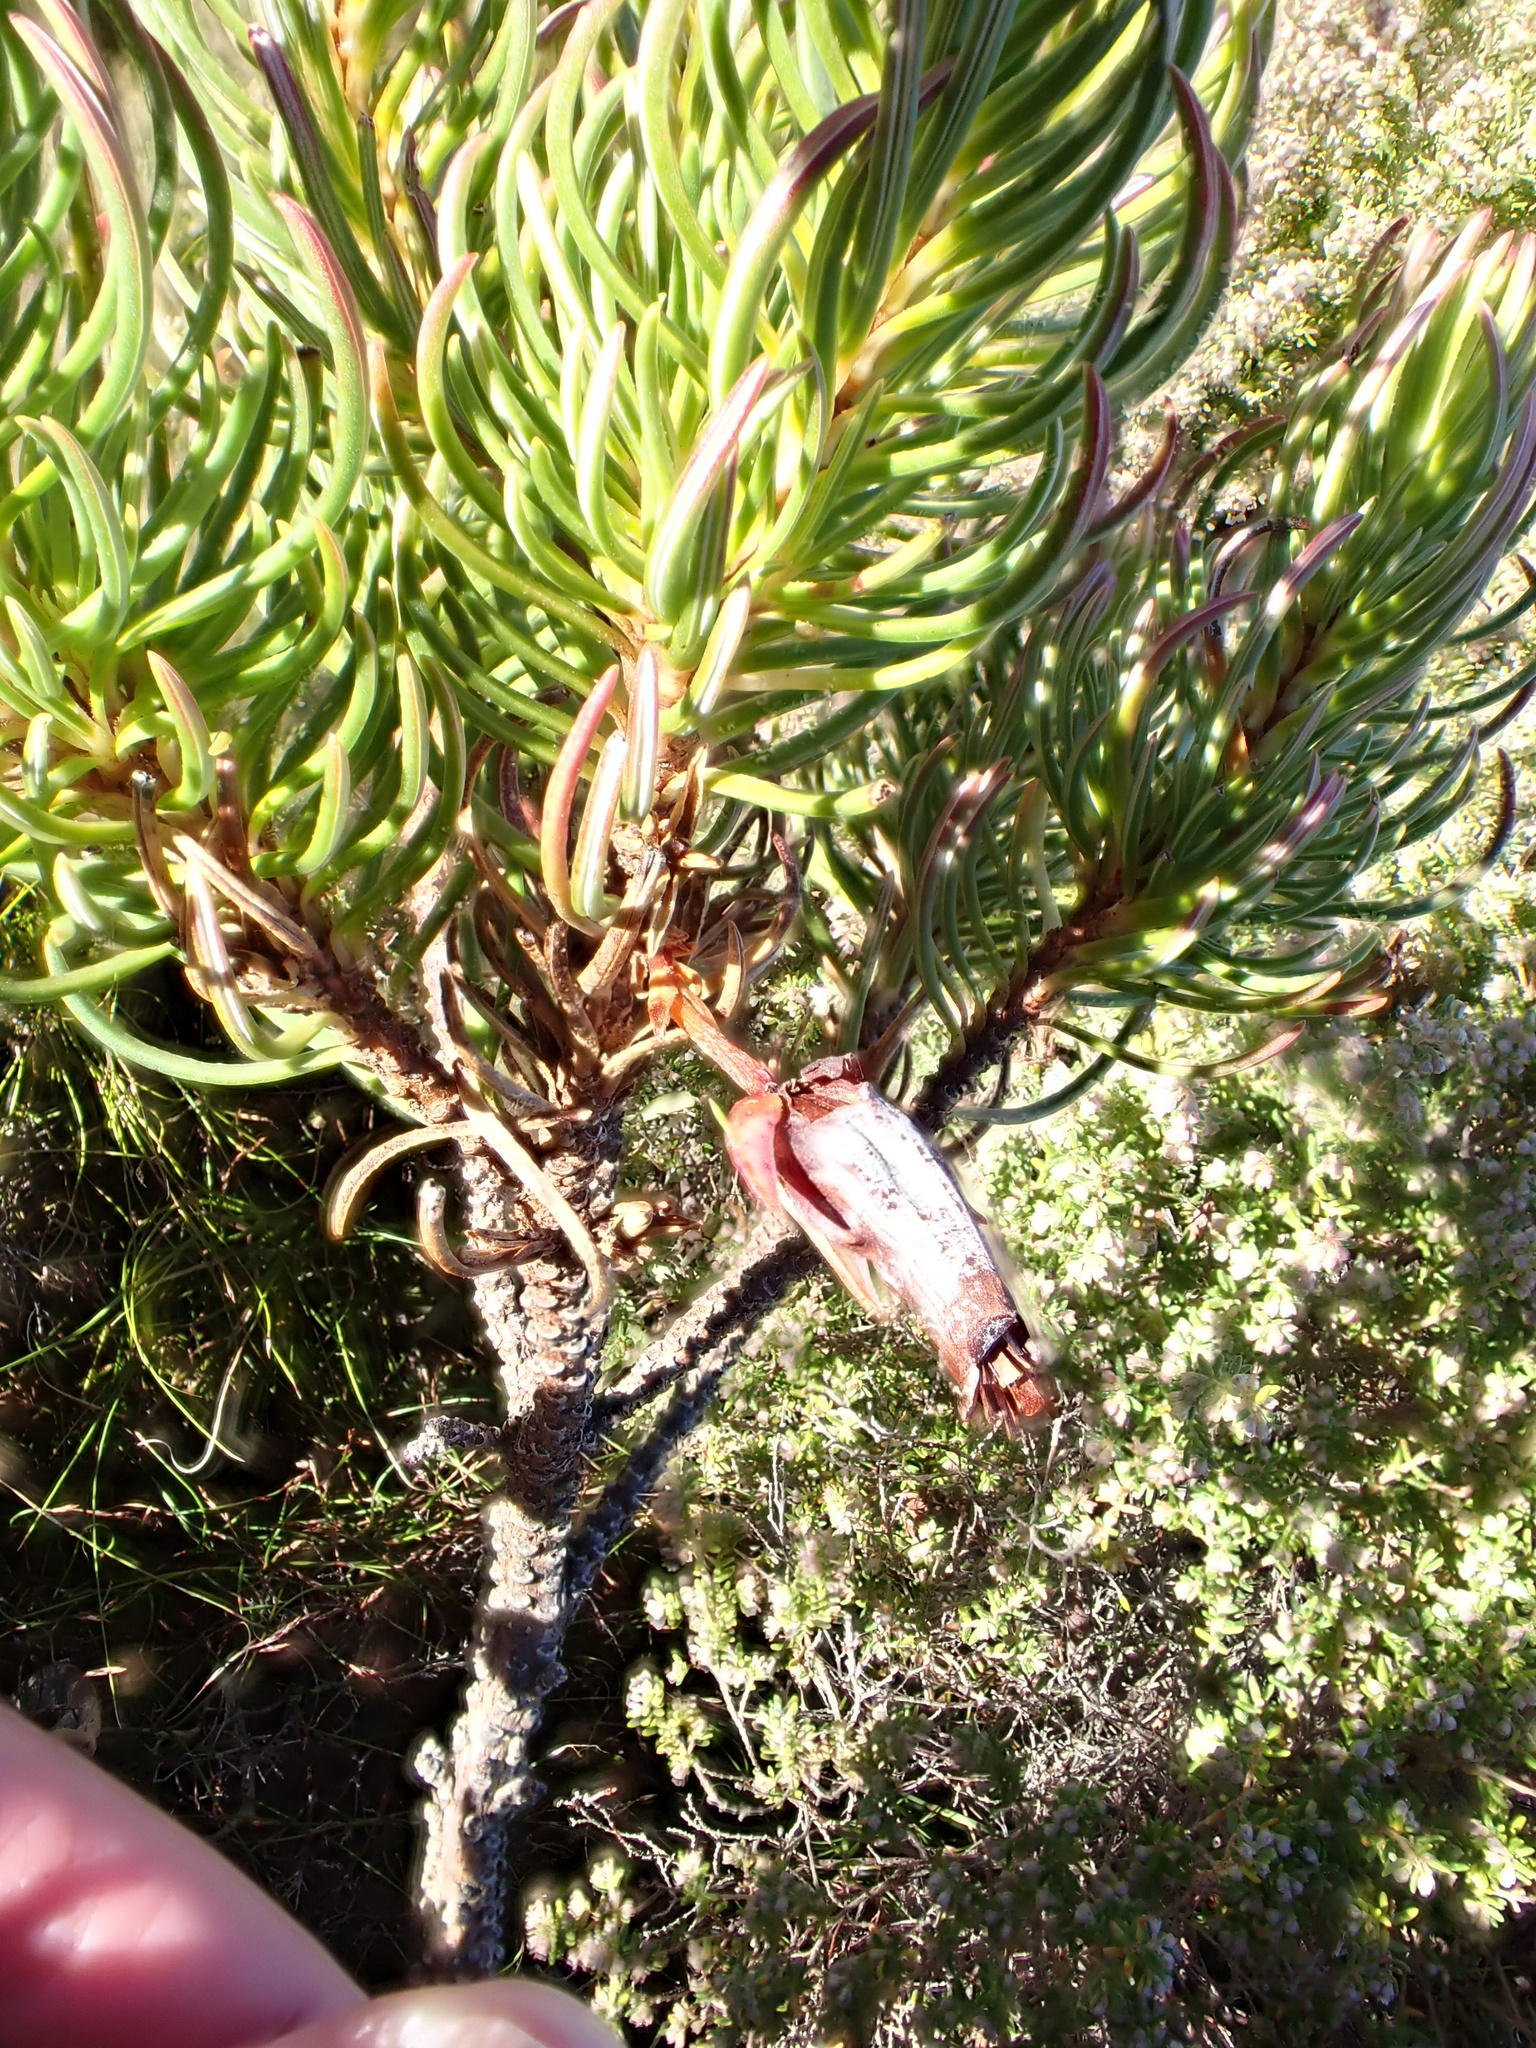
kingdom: Plantae
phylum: Tracheophyta
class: Magnoliopsida
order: Ericales
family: Ericaceae
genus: Erica
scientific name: Erica plukenetii
